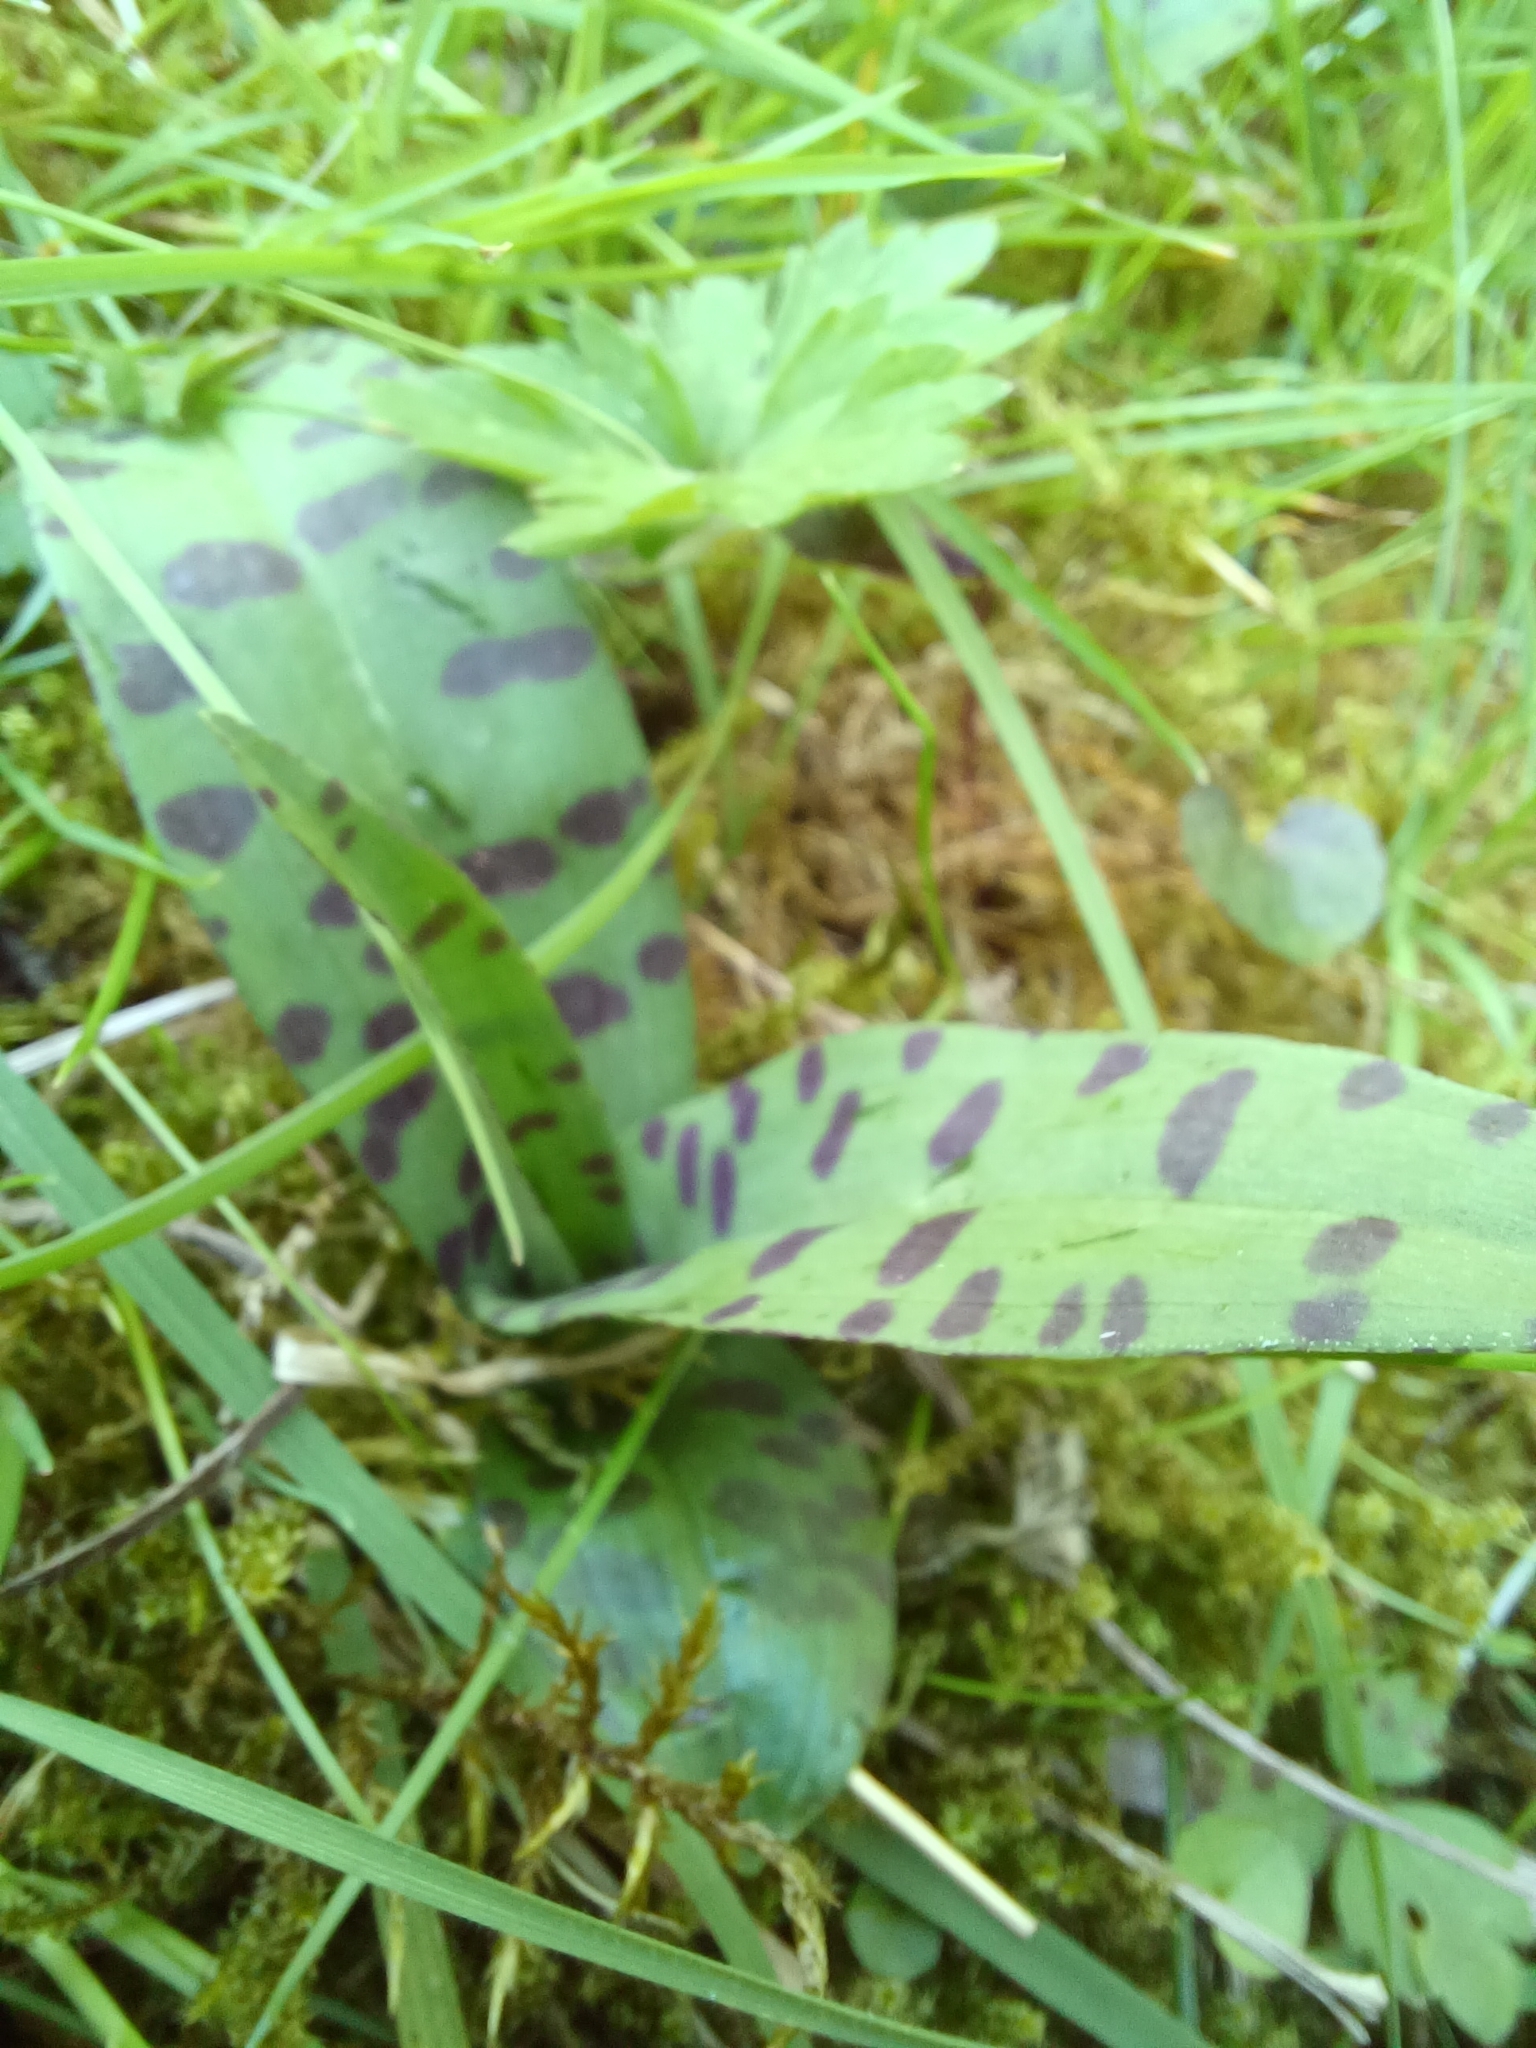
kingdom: Plantae
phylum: Tracheophyta
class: Liliopsida
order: Asparagales
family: Orchidaceae
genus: Dactylorhiza
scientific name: Dactylorhiza maculata
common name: Heath spotted-orchid
